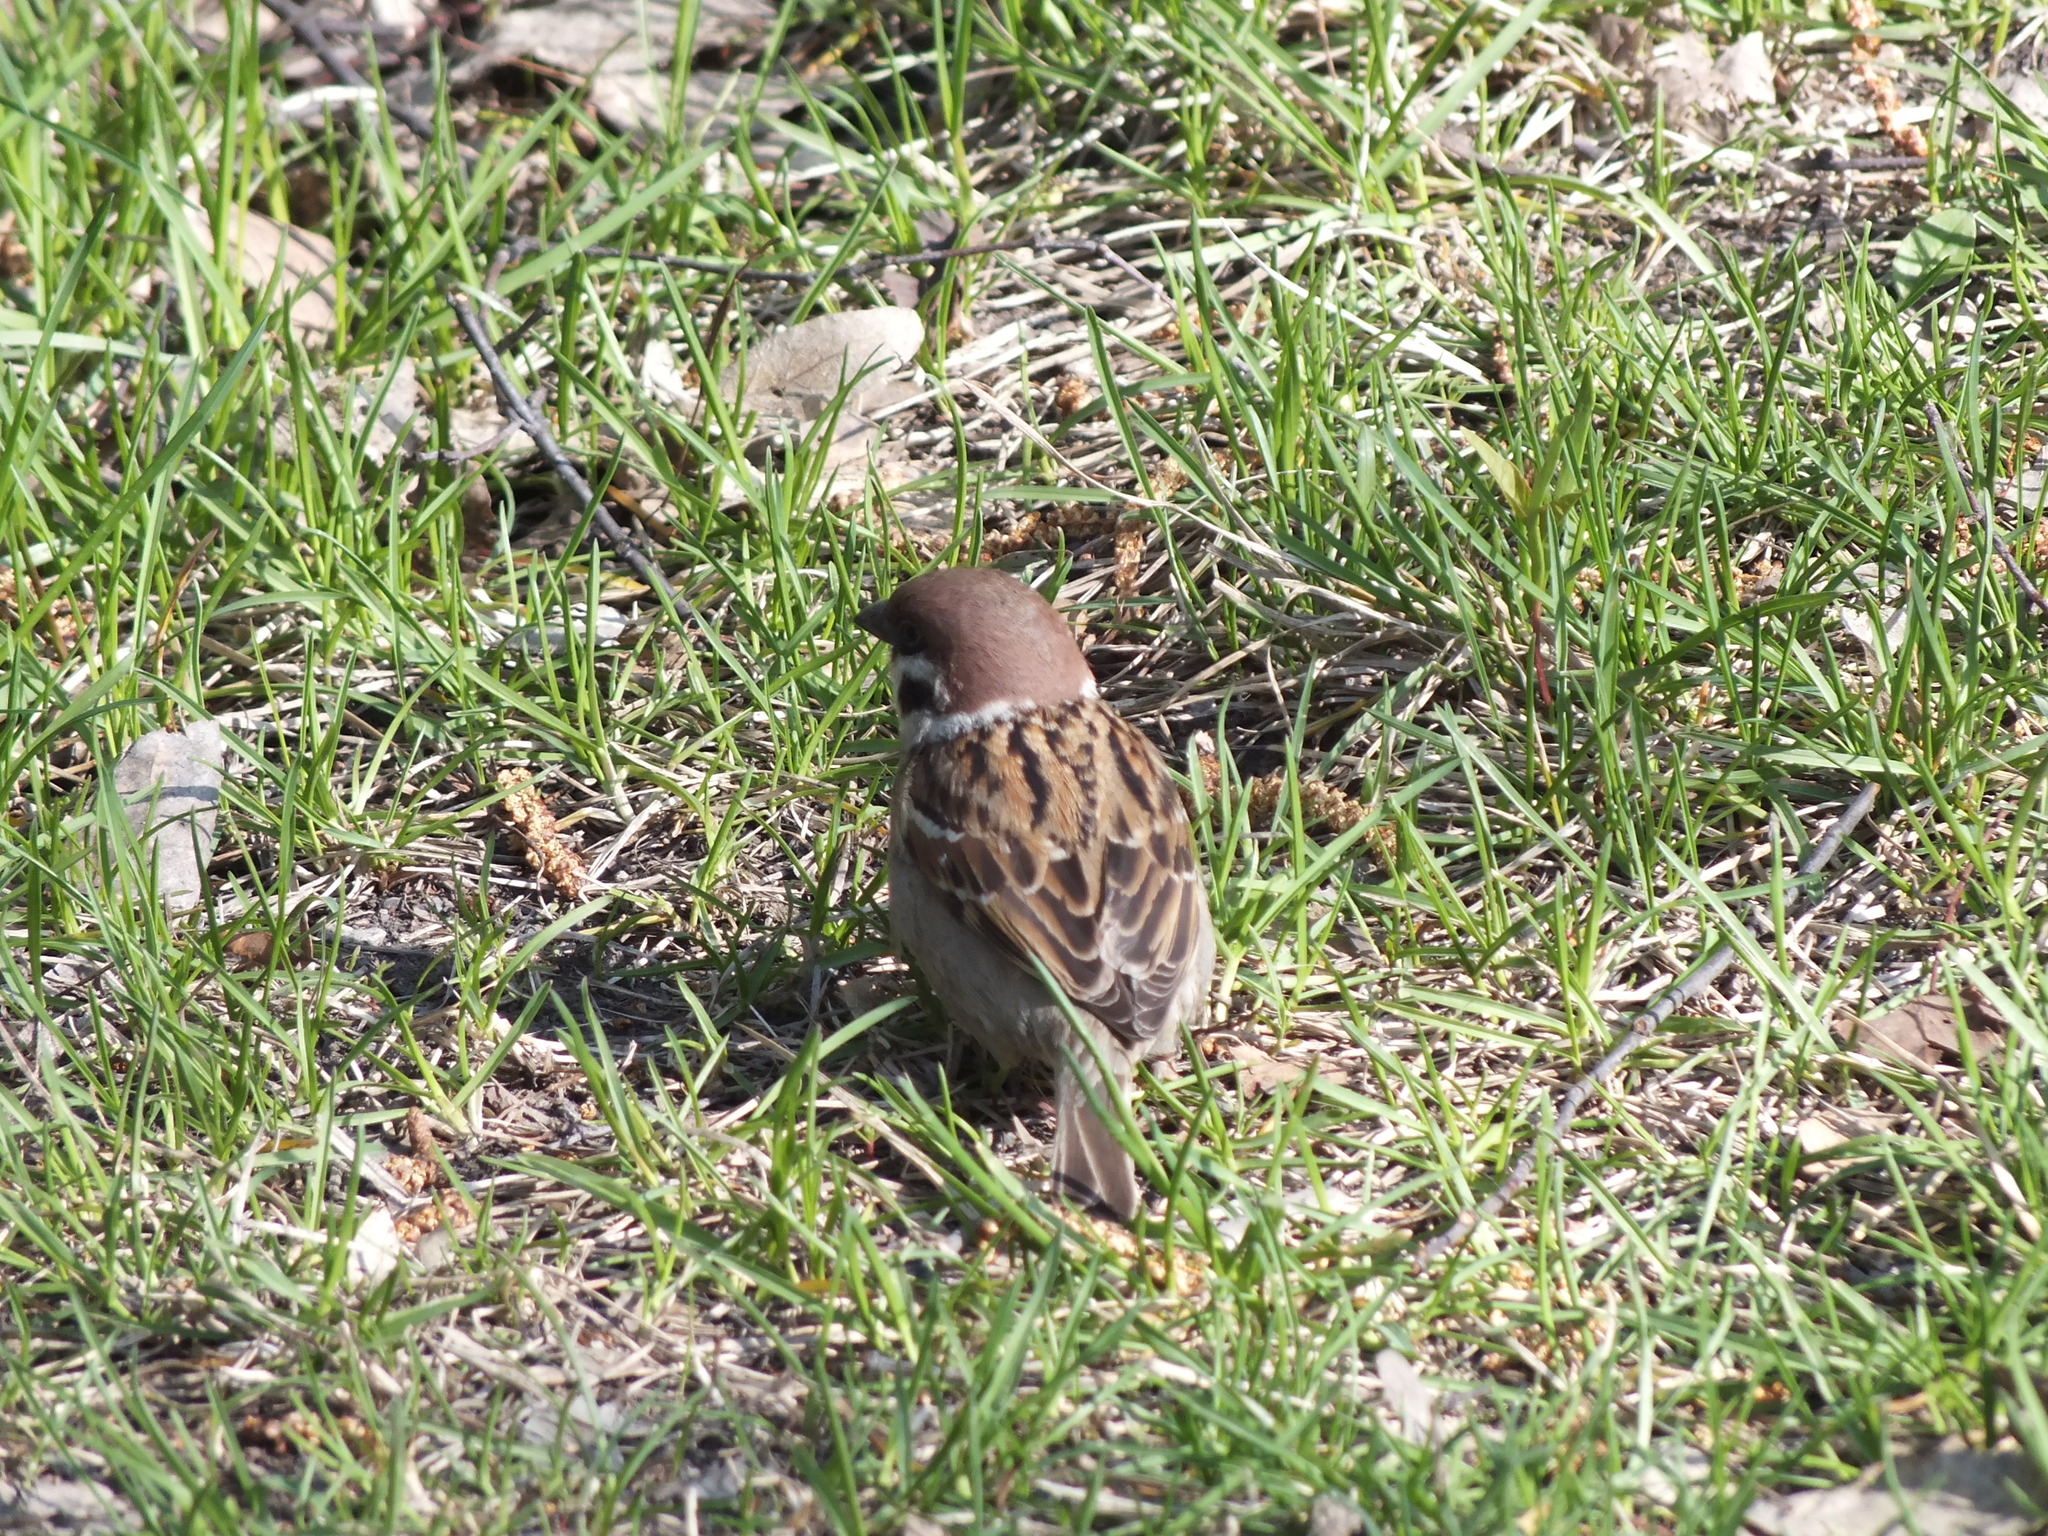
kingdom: Animalia
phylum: Chordata
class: Aves
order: Passeriformes
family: Passeridae
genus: Passer
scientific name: Passer montanus
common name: Eurasian tree sparrow
